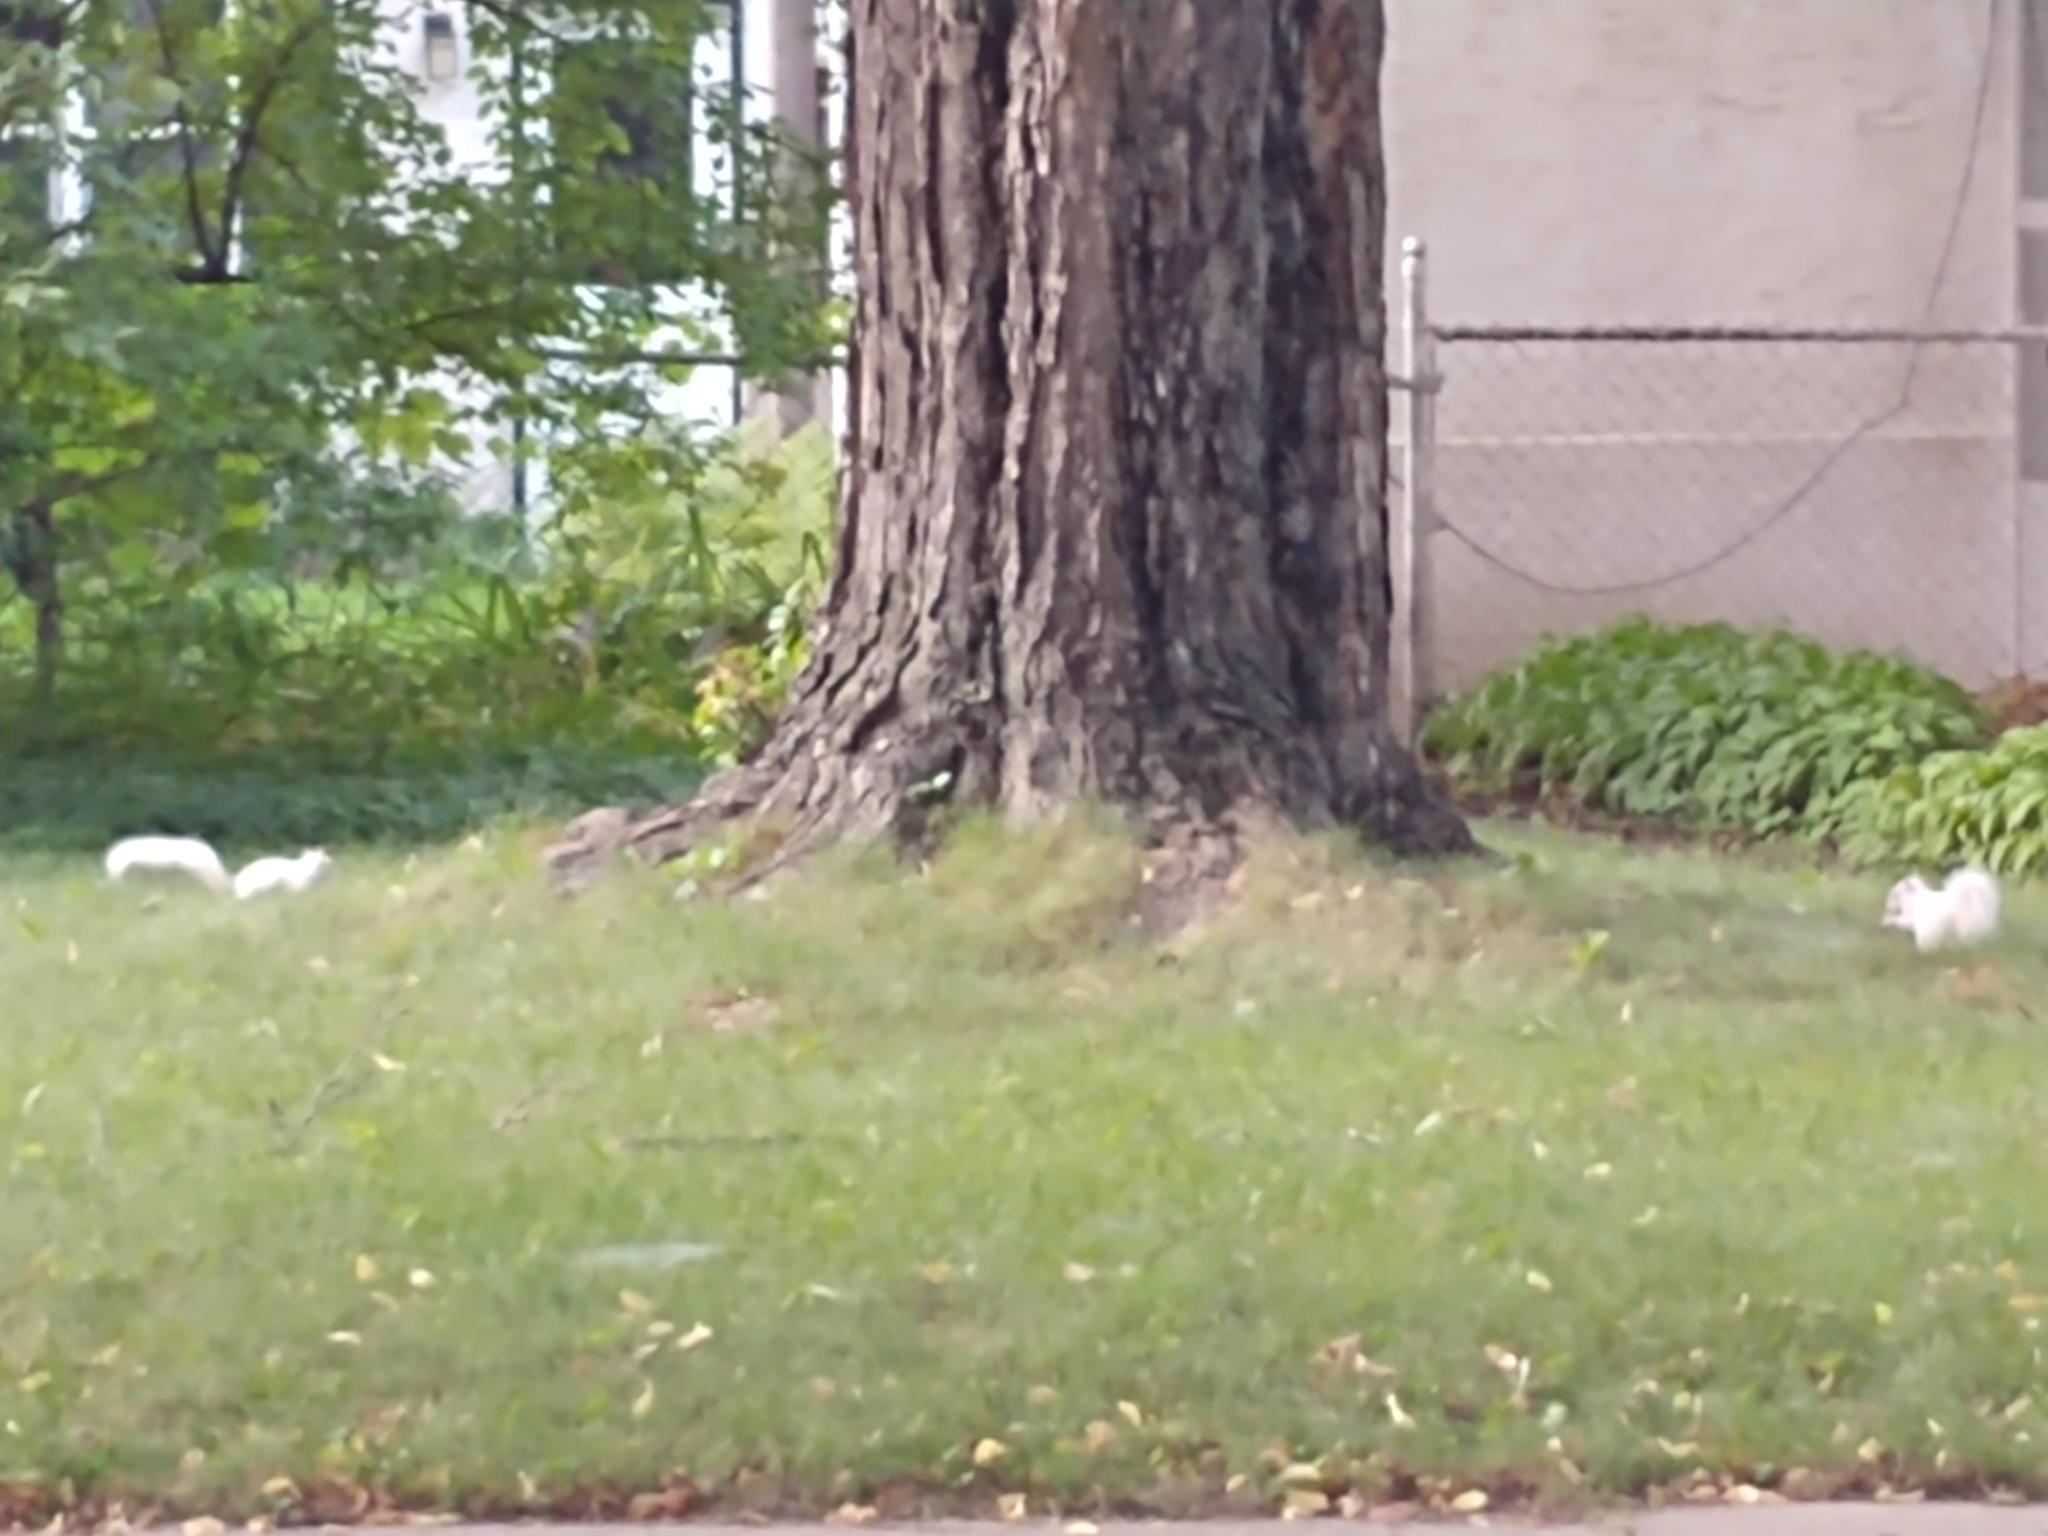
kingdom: Animalia
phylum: Chordata
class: Mammalia
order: Rodentia
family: Sciuridae
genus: Sciurus
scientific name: Sciurus carolinensis
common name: Eastern gray squirrel
